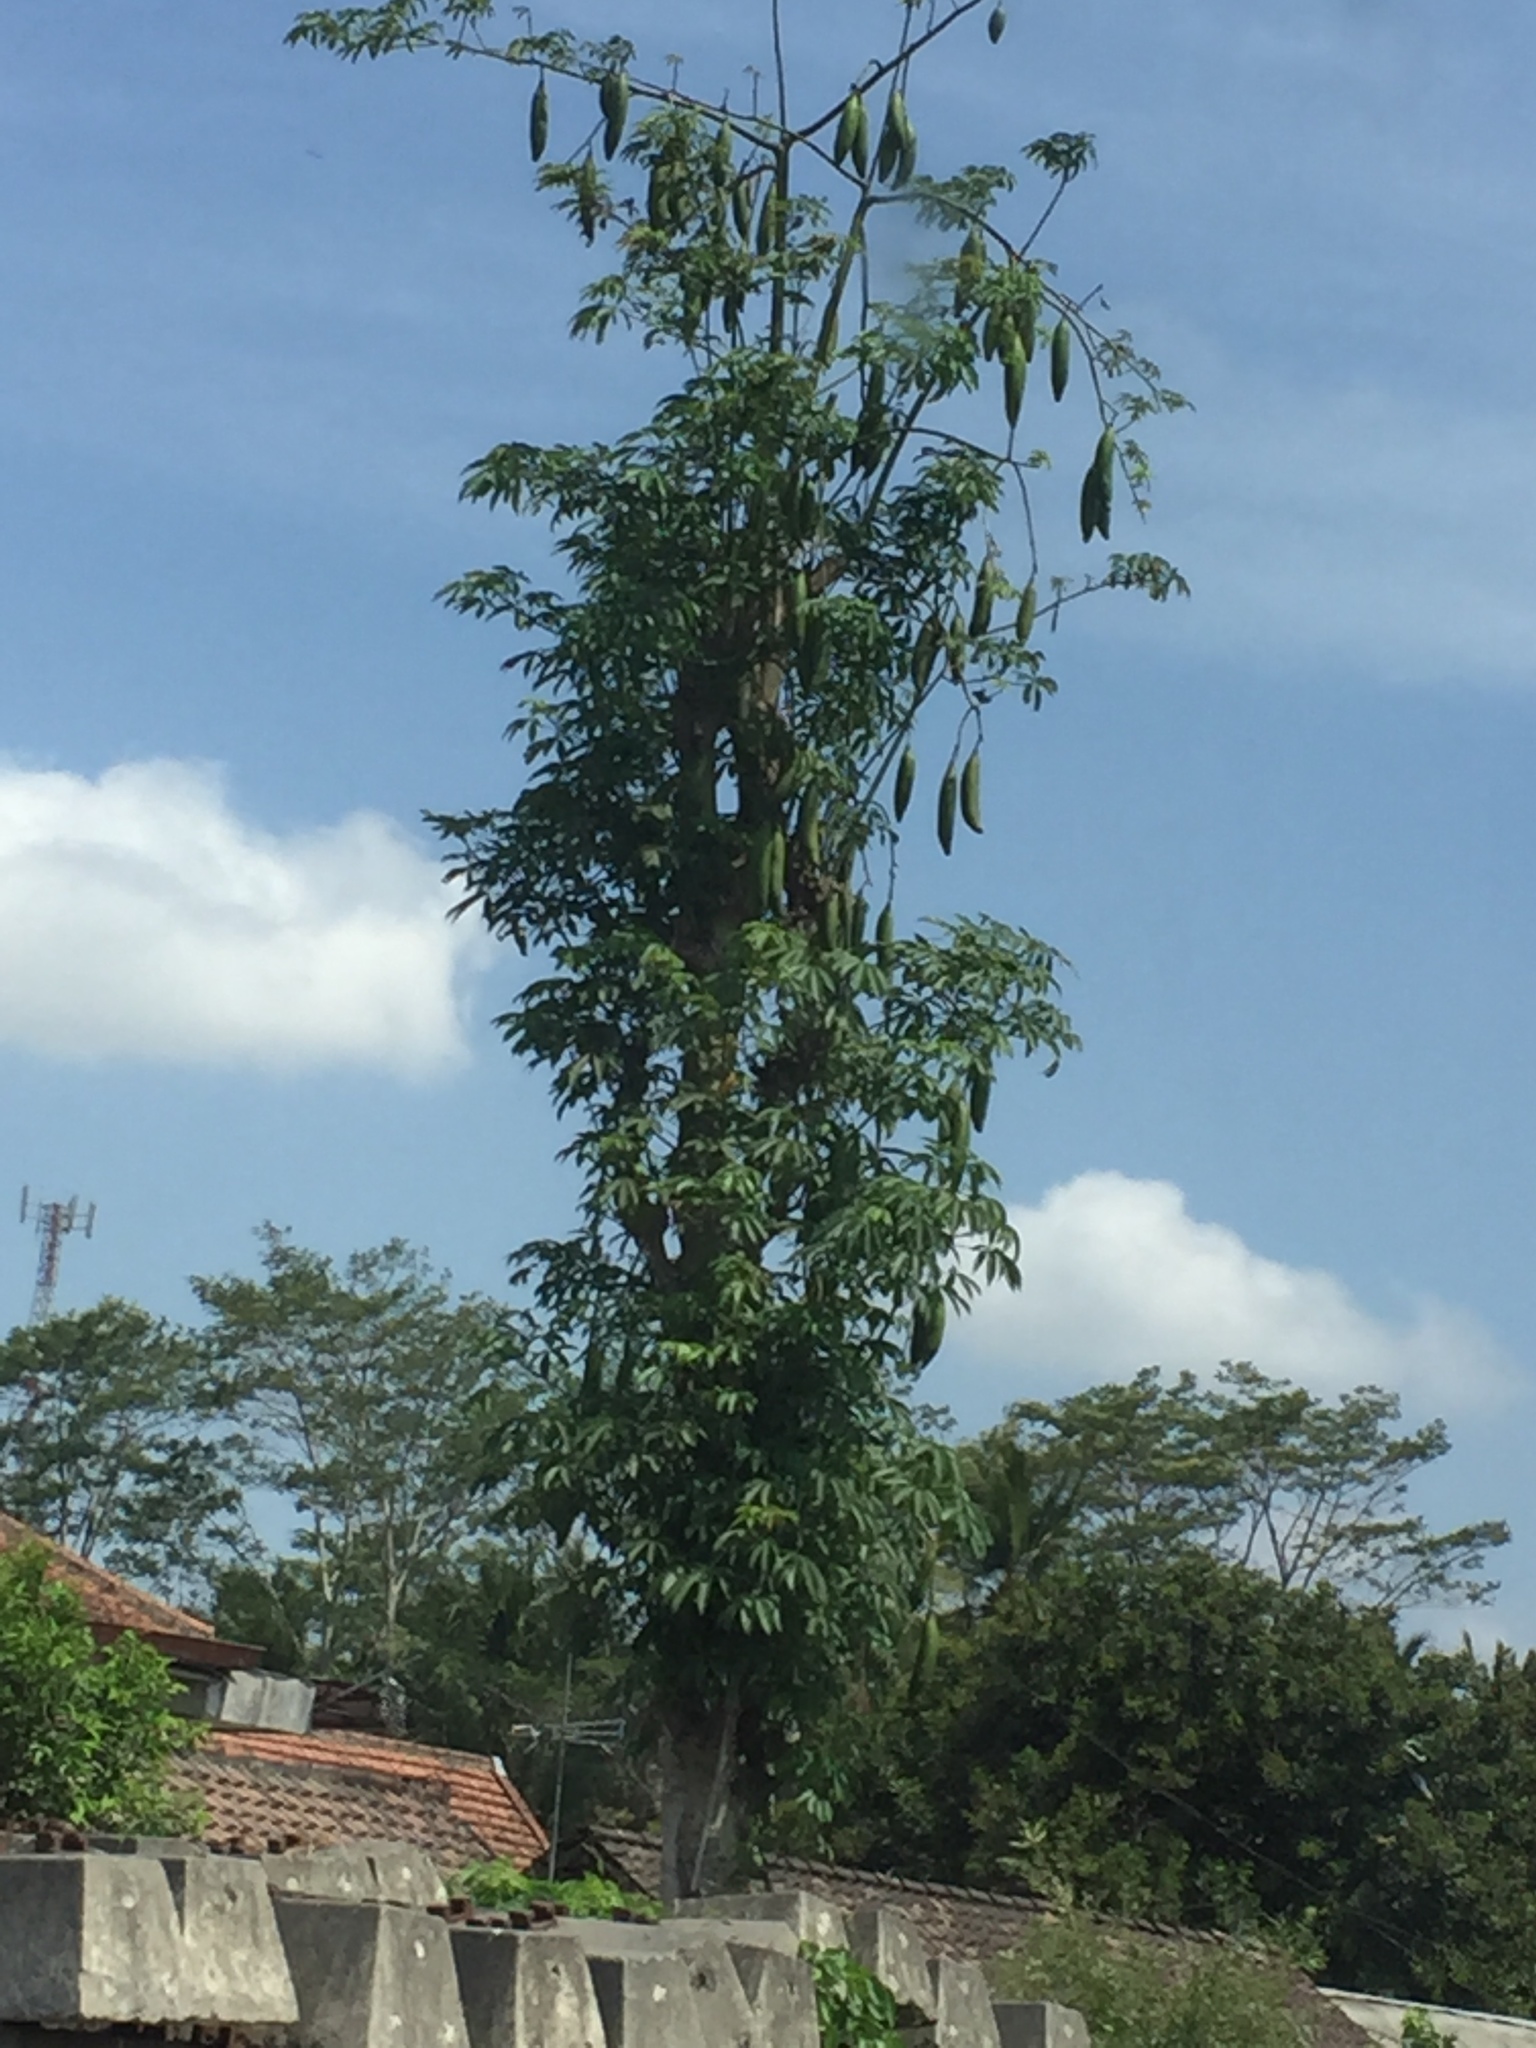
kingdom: Plantae
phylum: Tracheophyta
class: Magnoliopsida
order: Malvales
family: Malvaceae
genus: Ceiba
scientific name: Ceiba pentandra
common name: Kapok
